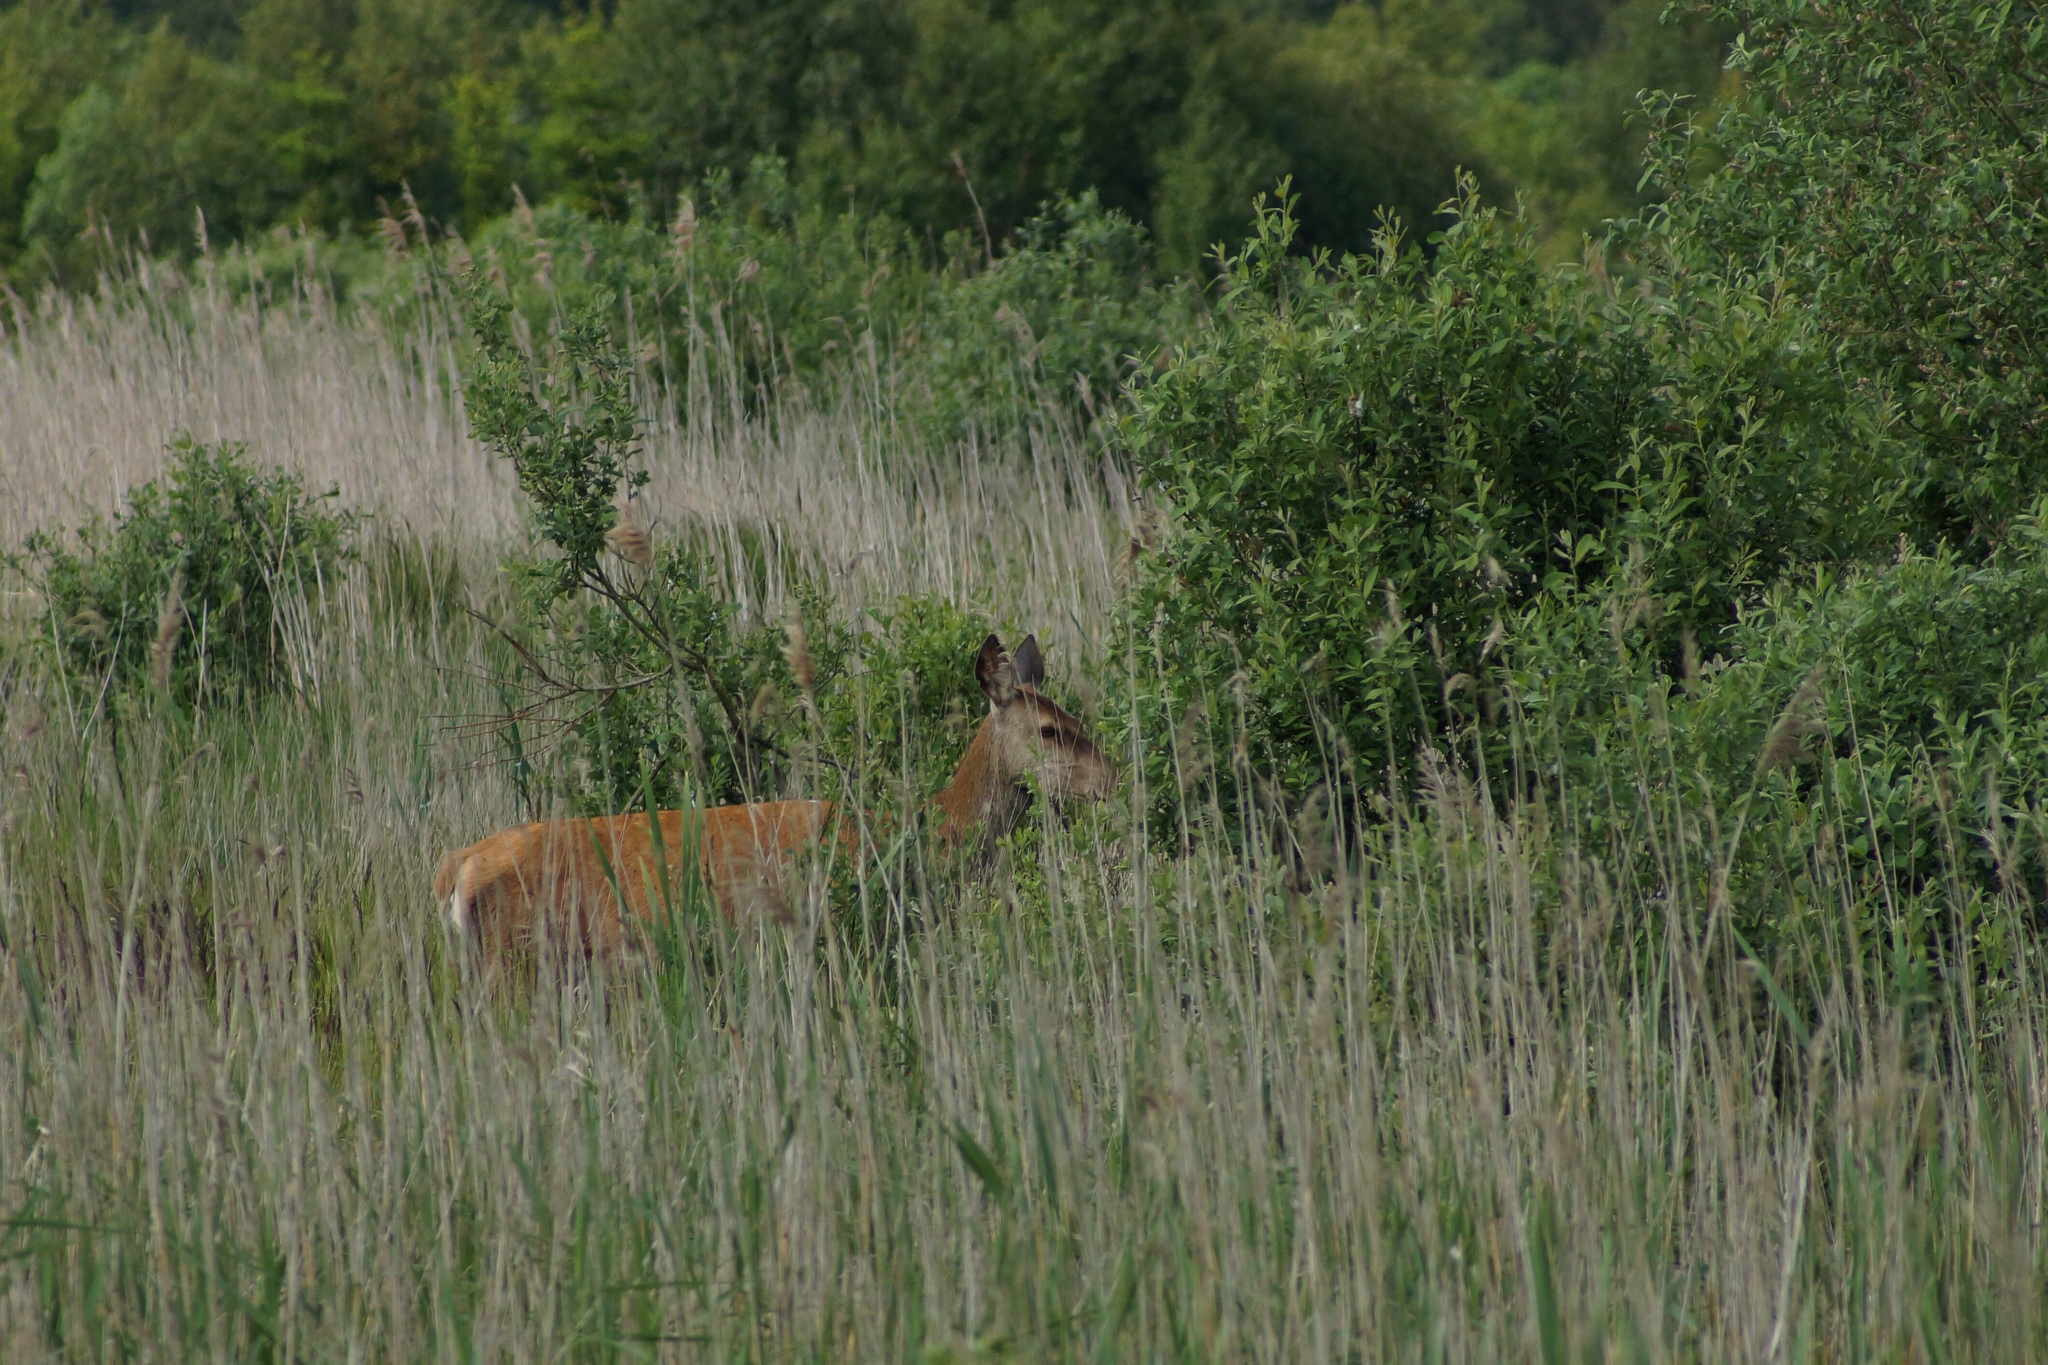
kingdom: Animalia
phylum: Chordata
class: Mammalia
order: Artiodactyla
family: Cervidae
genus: Cervus
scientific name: Cervus elaphus
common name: Red deer
